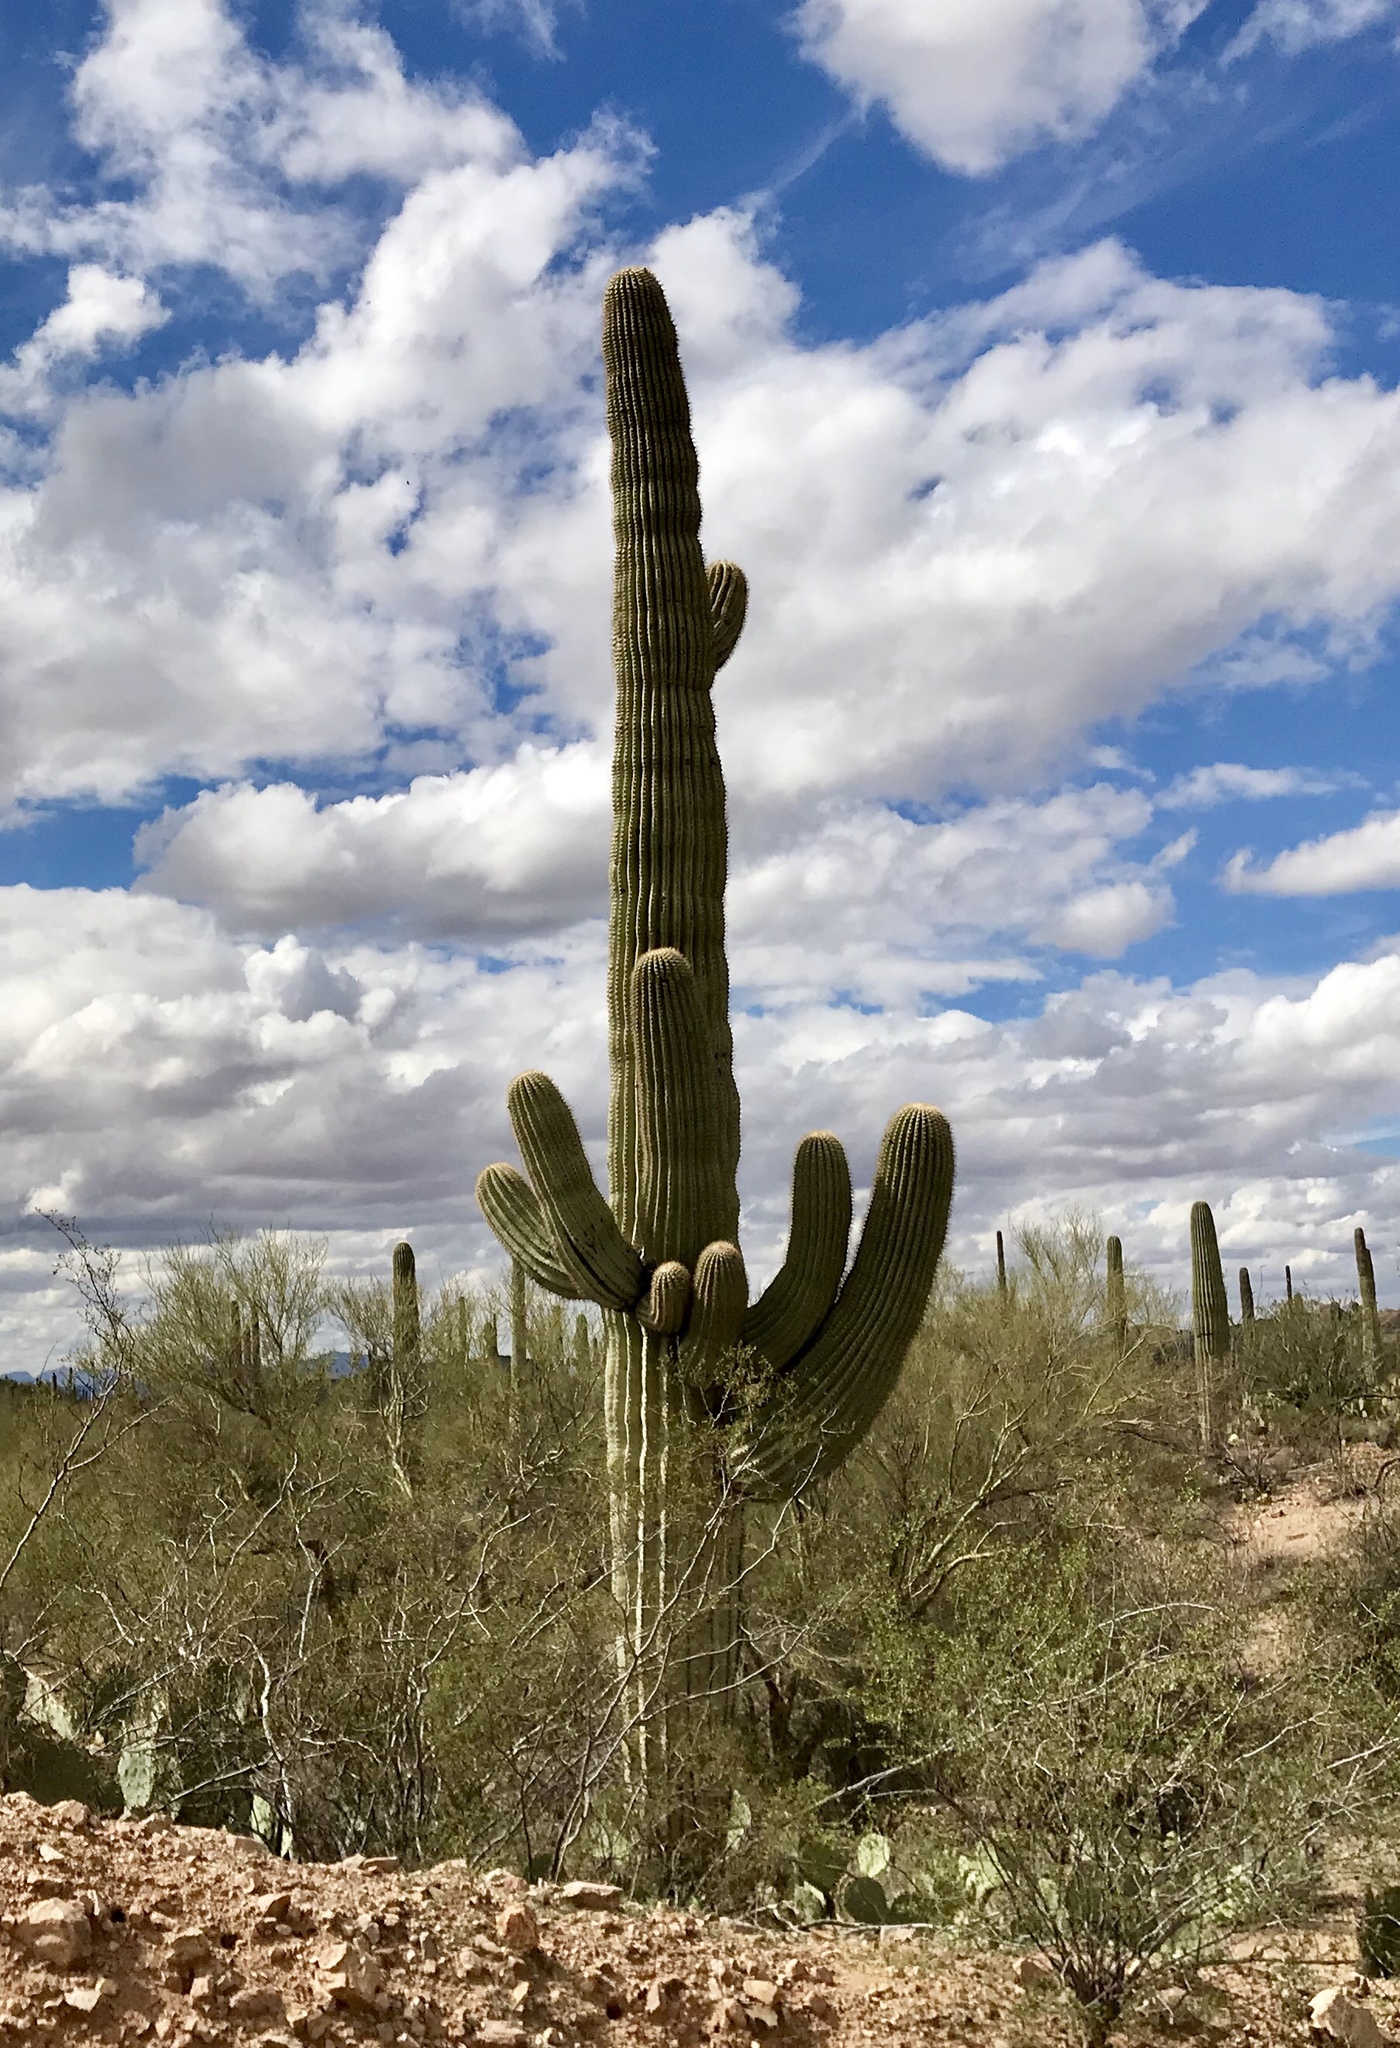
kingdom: Plantae
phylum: Tracheophyta
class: Magnoliopsida
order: Caryophyllales
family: Cactaceae
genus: Carnegiea
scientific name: Carnegiea gigantea
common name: Saguaro
